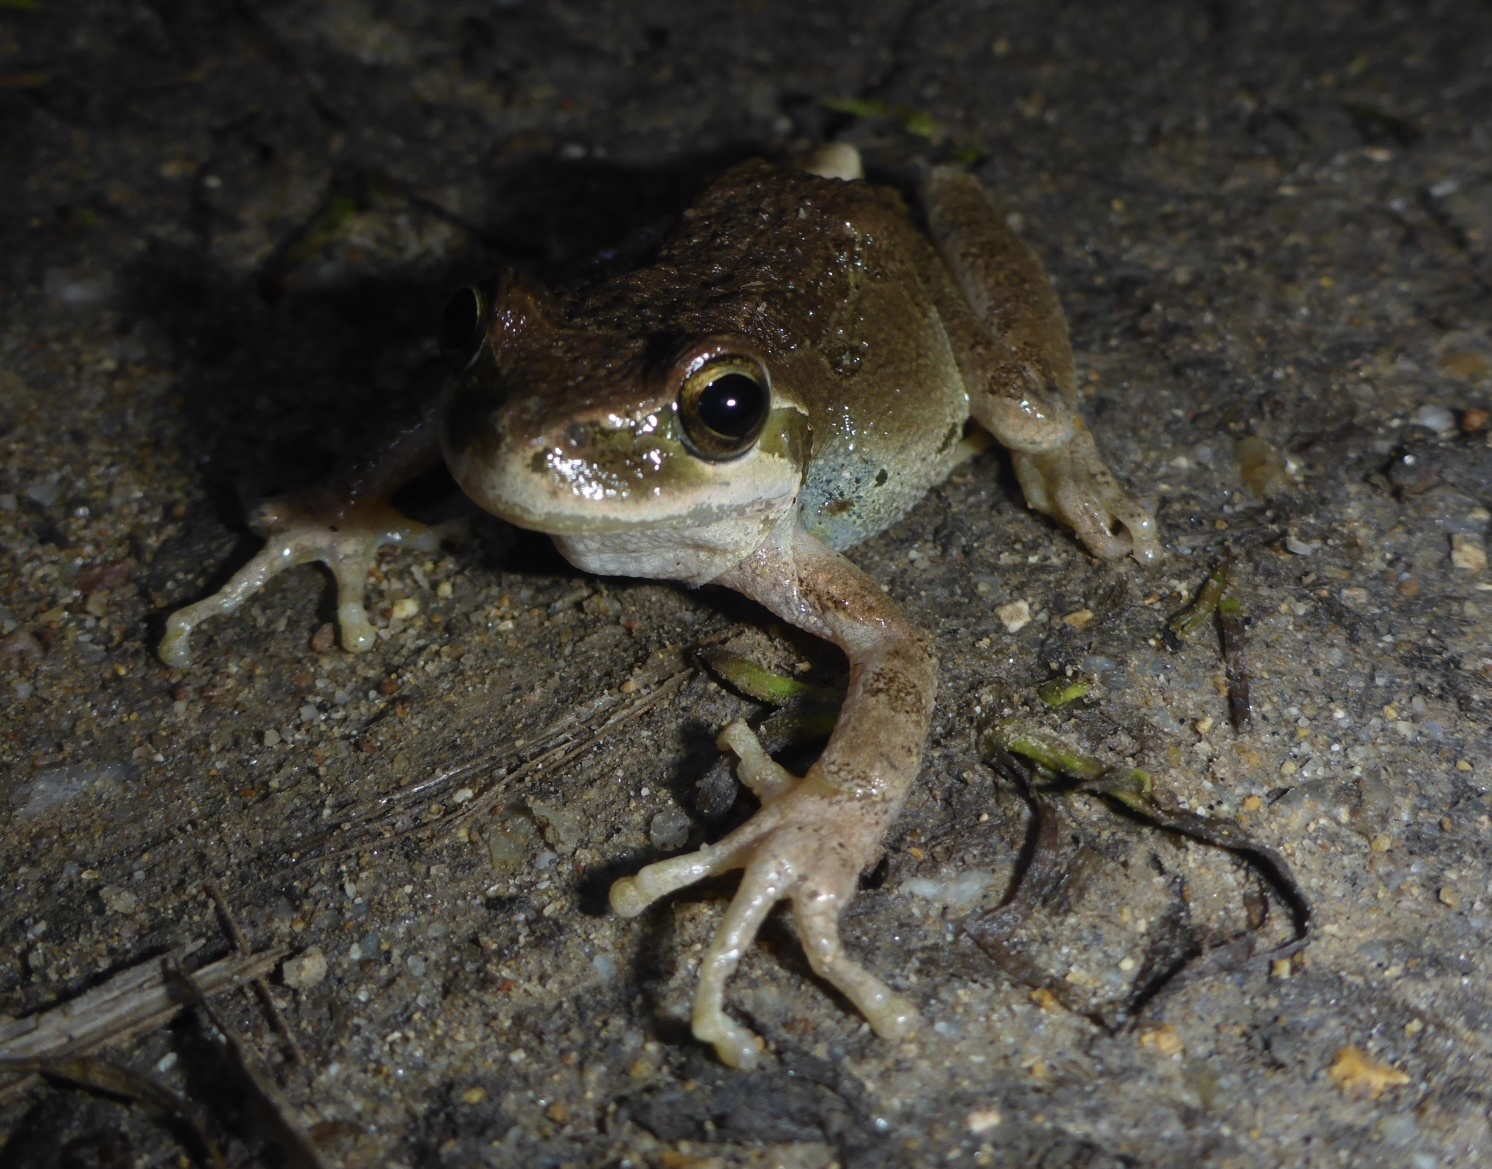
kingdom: Animalia
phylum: Chordata
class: Amphibia
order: Anura
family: Hylidae
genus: Pseudacris
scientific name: Pseudacris regilla
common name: Pacific chorus frog
